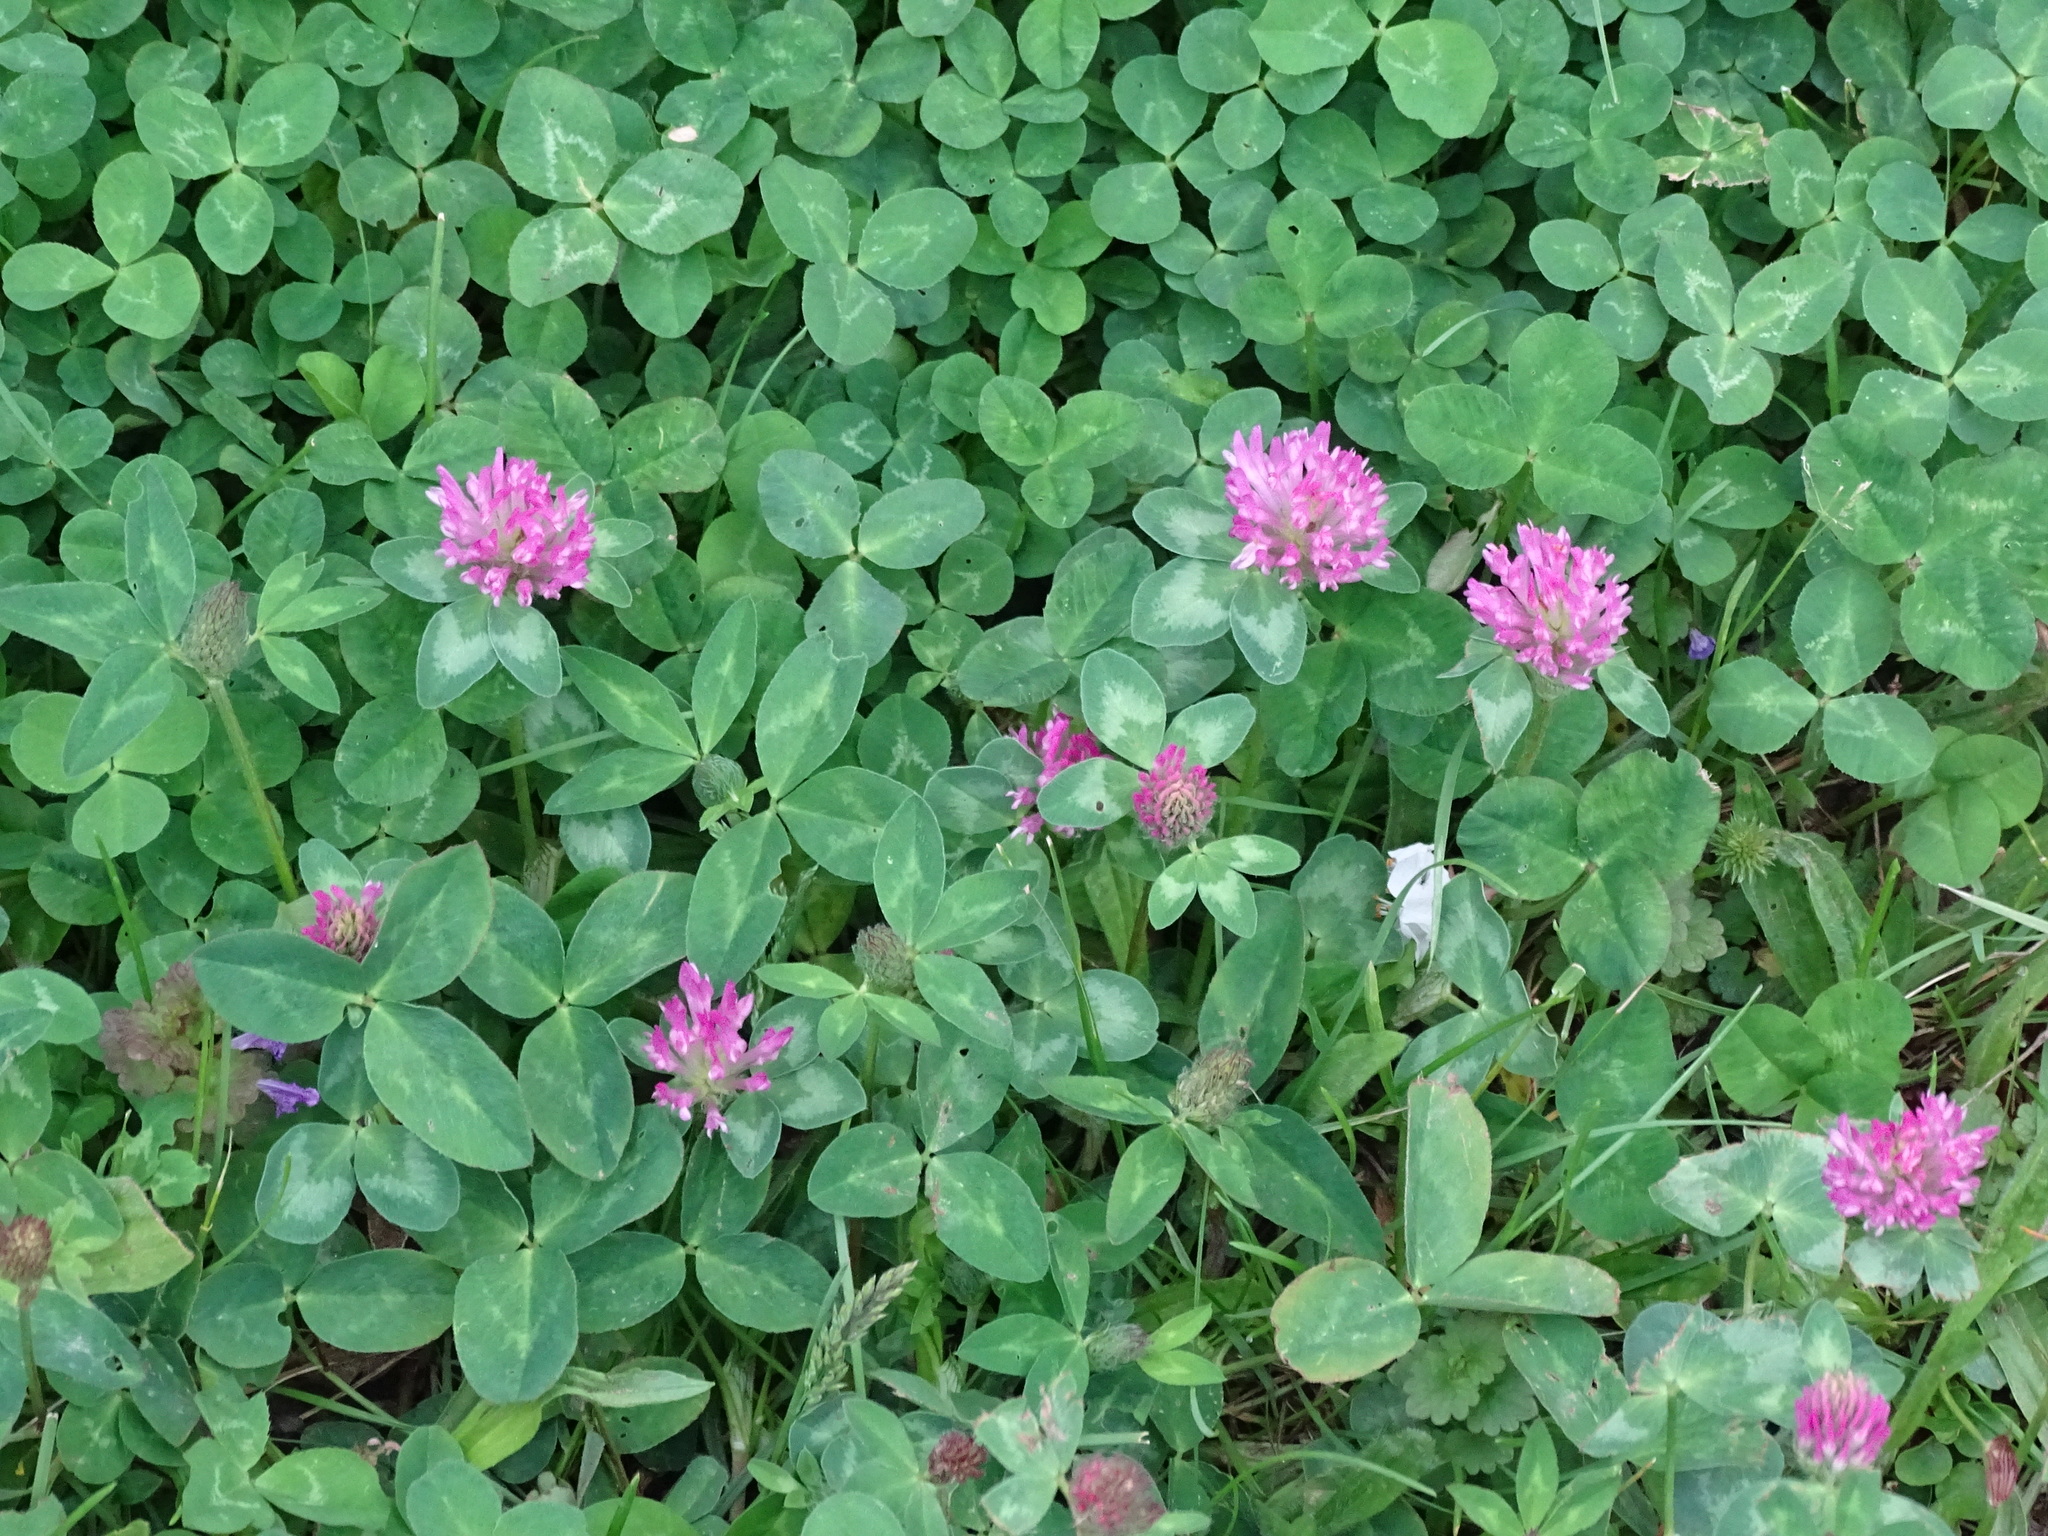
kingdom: Plantae
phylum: Tracheophyta
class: Magnoliopsida
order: Fabales
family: Fabaceae
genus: Trifolium
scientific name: Trifolium pratense
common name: Red clover
